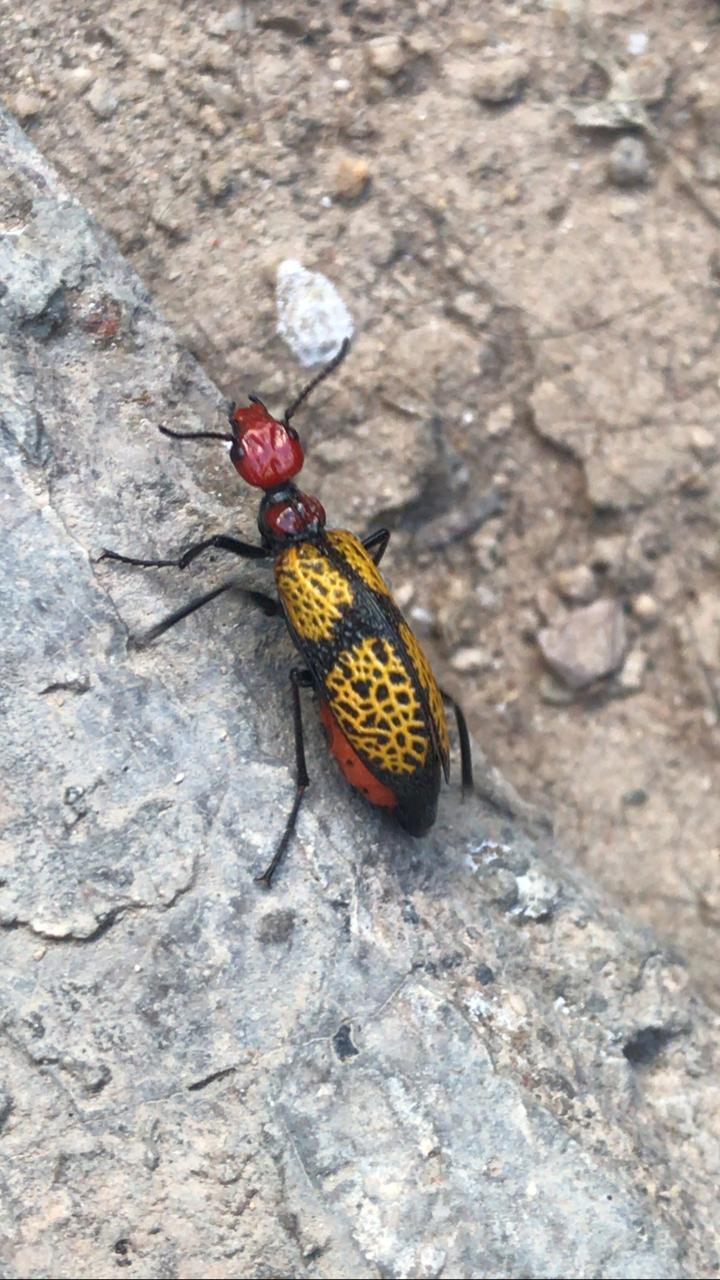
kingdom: Animalia
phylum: Arthropoda
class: Insecta
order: Coleoptera
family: Meloidae
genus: Tegrodera
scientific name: Tegrodera aloga
